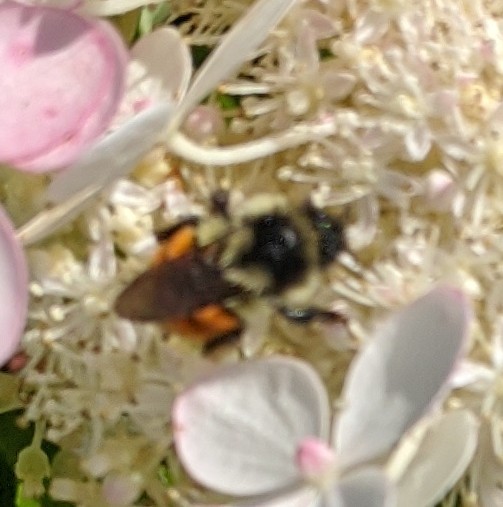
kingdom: Animalia
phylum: Arthropoda
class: Insecta
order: Hymenoptera
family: Apidae
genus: Bombus
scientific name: Bombus ternarius
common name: Tri-colored bumble bee
